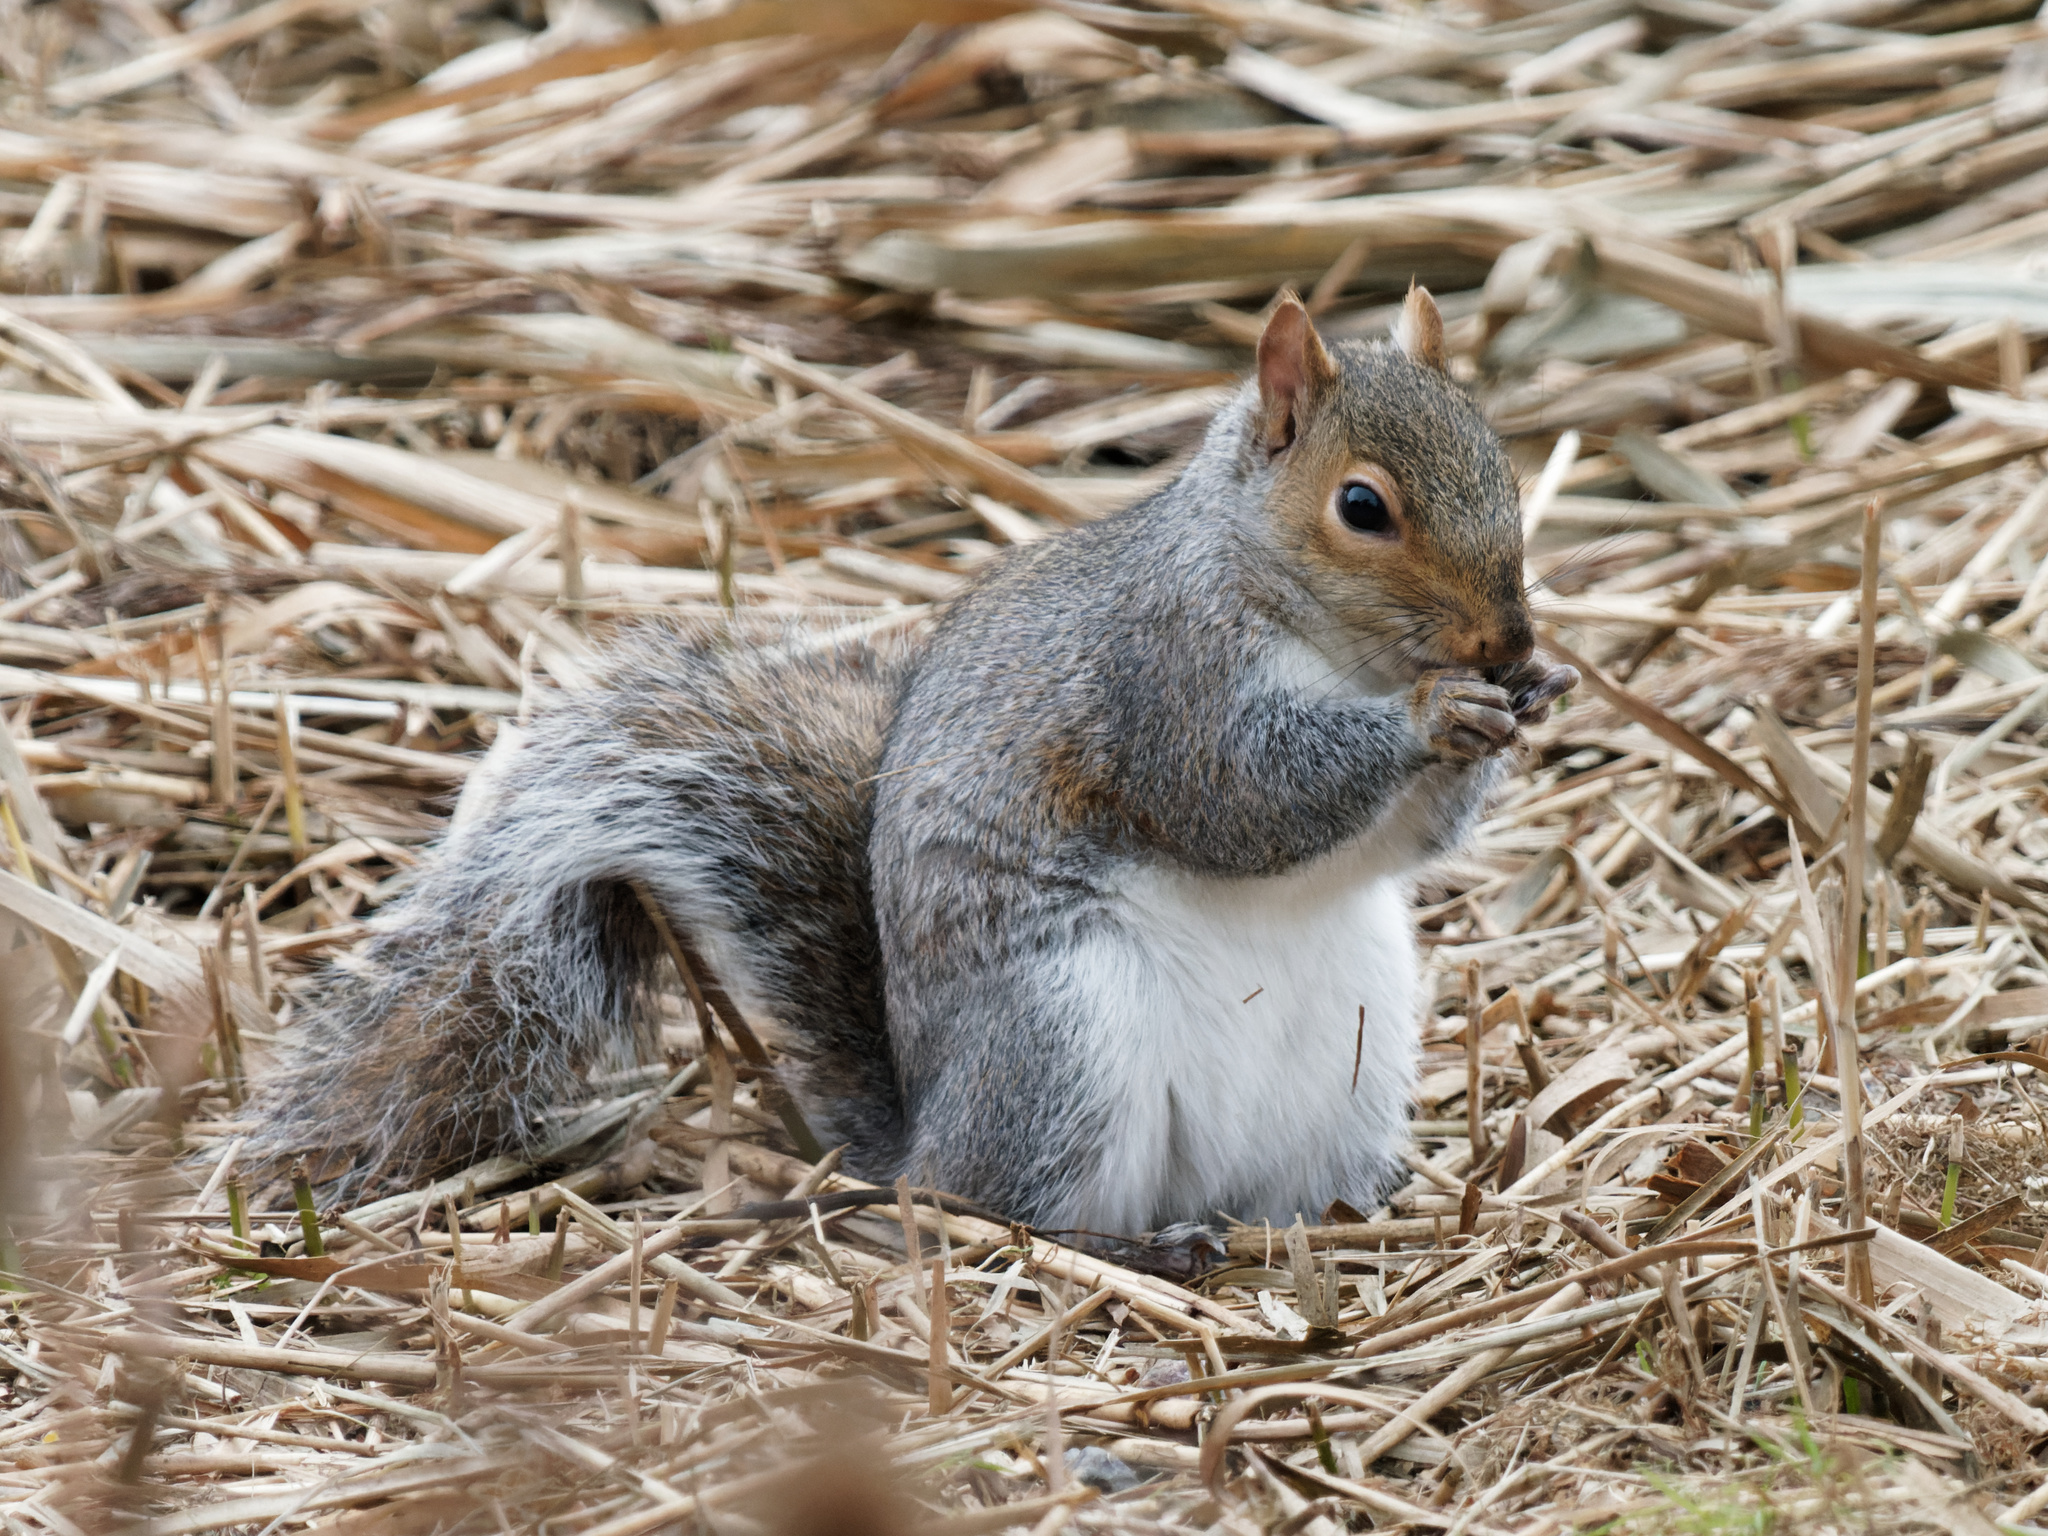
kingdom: Animalia
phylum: Chordata
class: Mammalia
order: Rodentia
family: Sciuridae
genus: Sciurus
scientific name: Sciurus carolinensis
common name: Eastern gray squirrel
